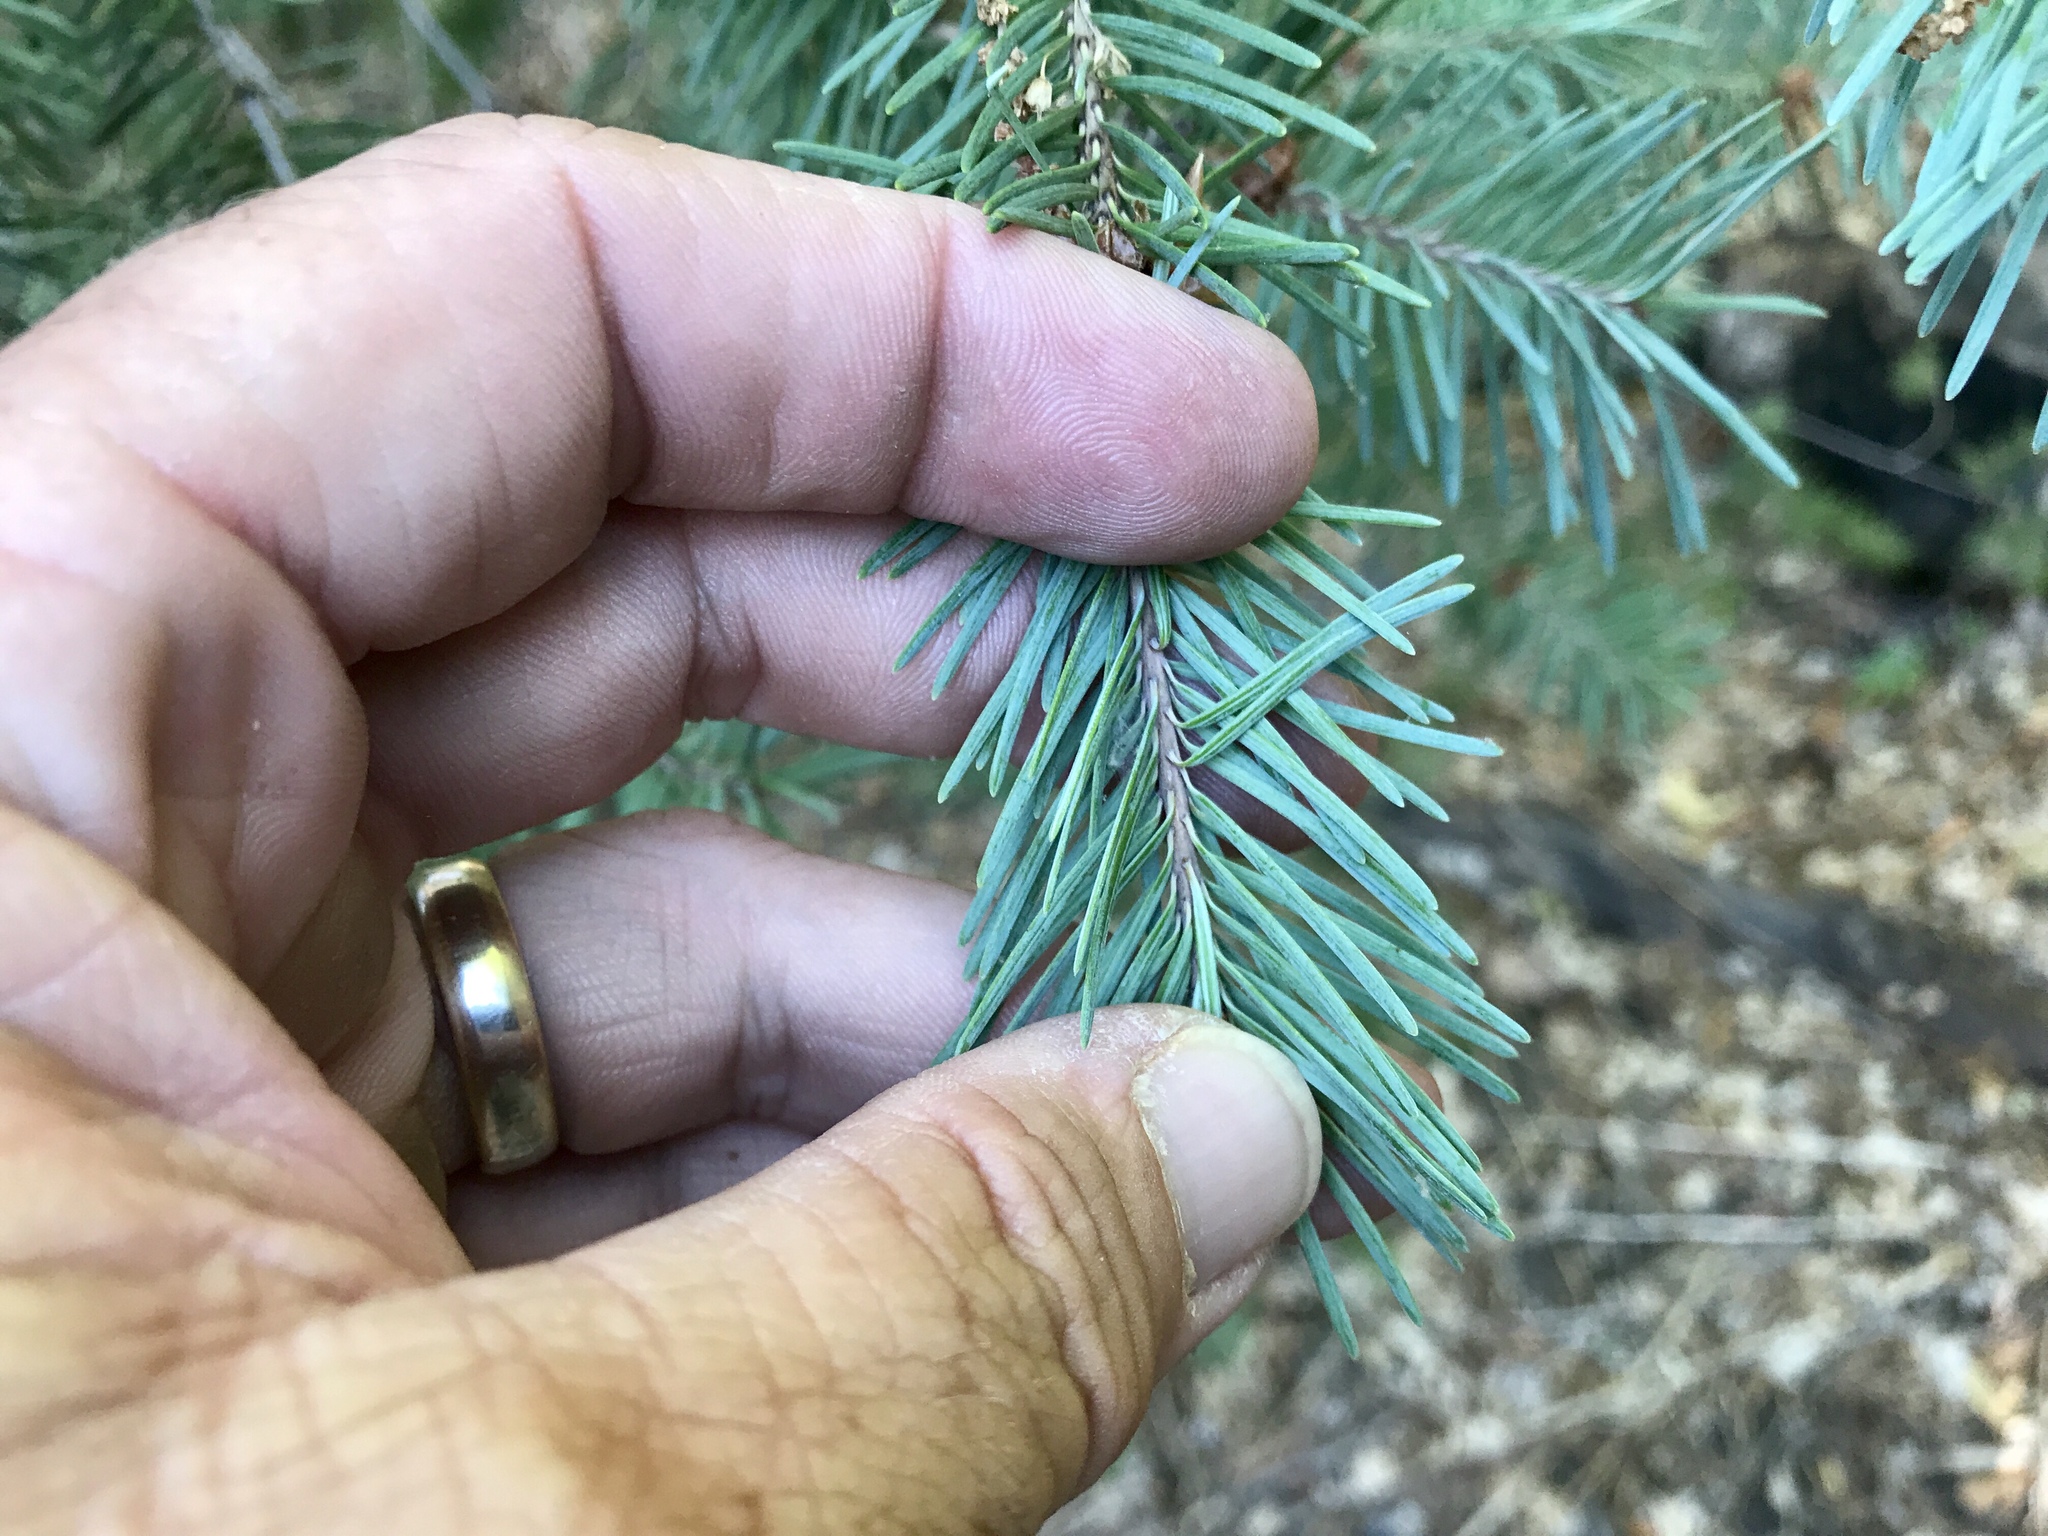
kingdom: Plantae
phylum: Tracheophyta
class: Pinopsida
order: Pinales
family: Pinaceae
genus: Pseudotsuga
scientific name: Pseudotsuga menziesii
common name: Douglas fir
